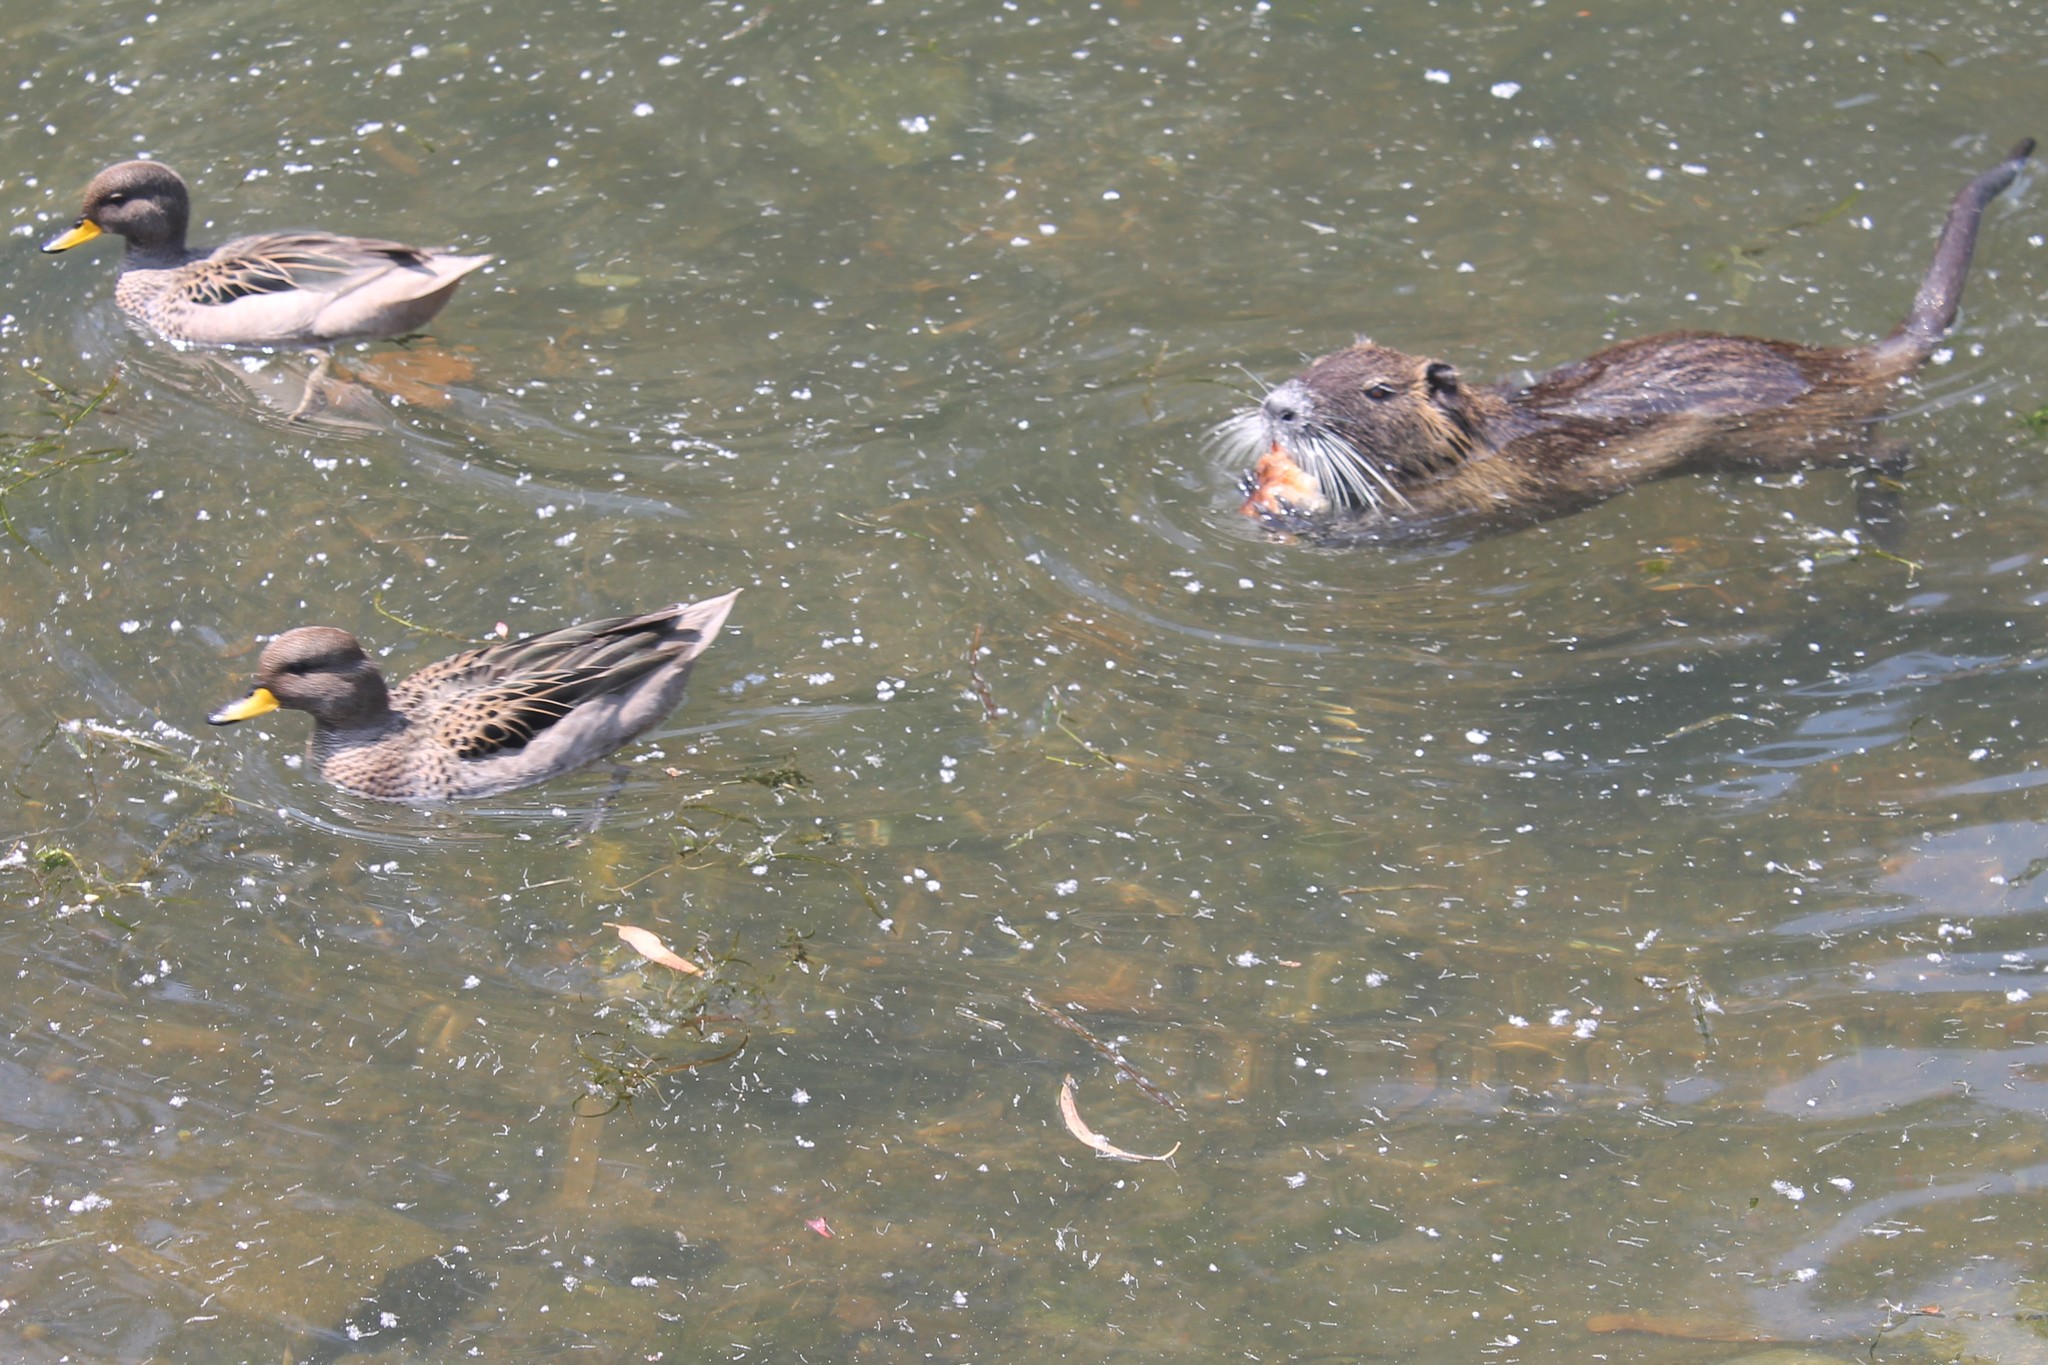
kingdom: Animalia
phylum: Chordata
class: Aves
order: Anseriformes
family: Anatidae
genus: Anas
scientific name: Anas flavirostris
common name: Yellow-billed teal
